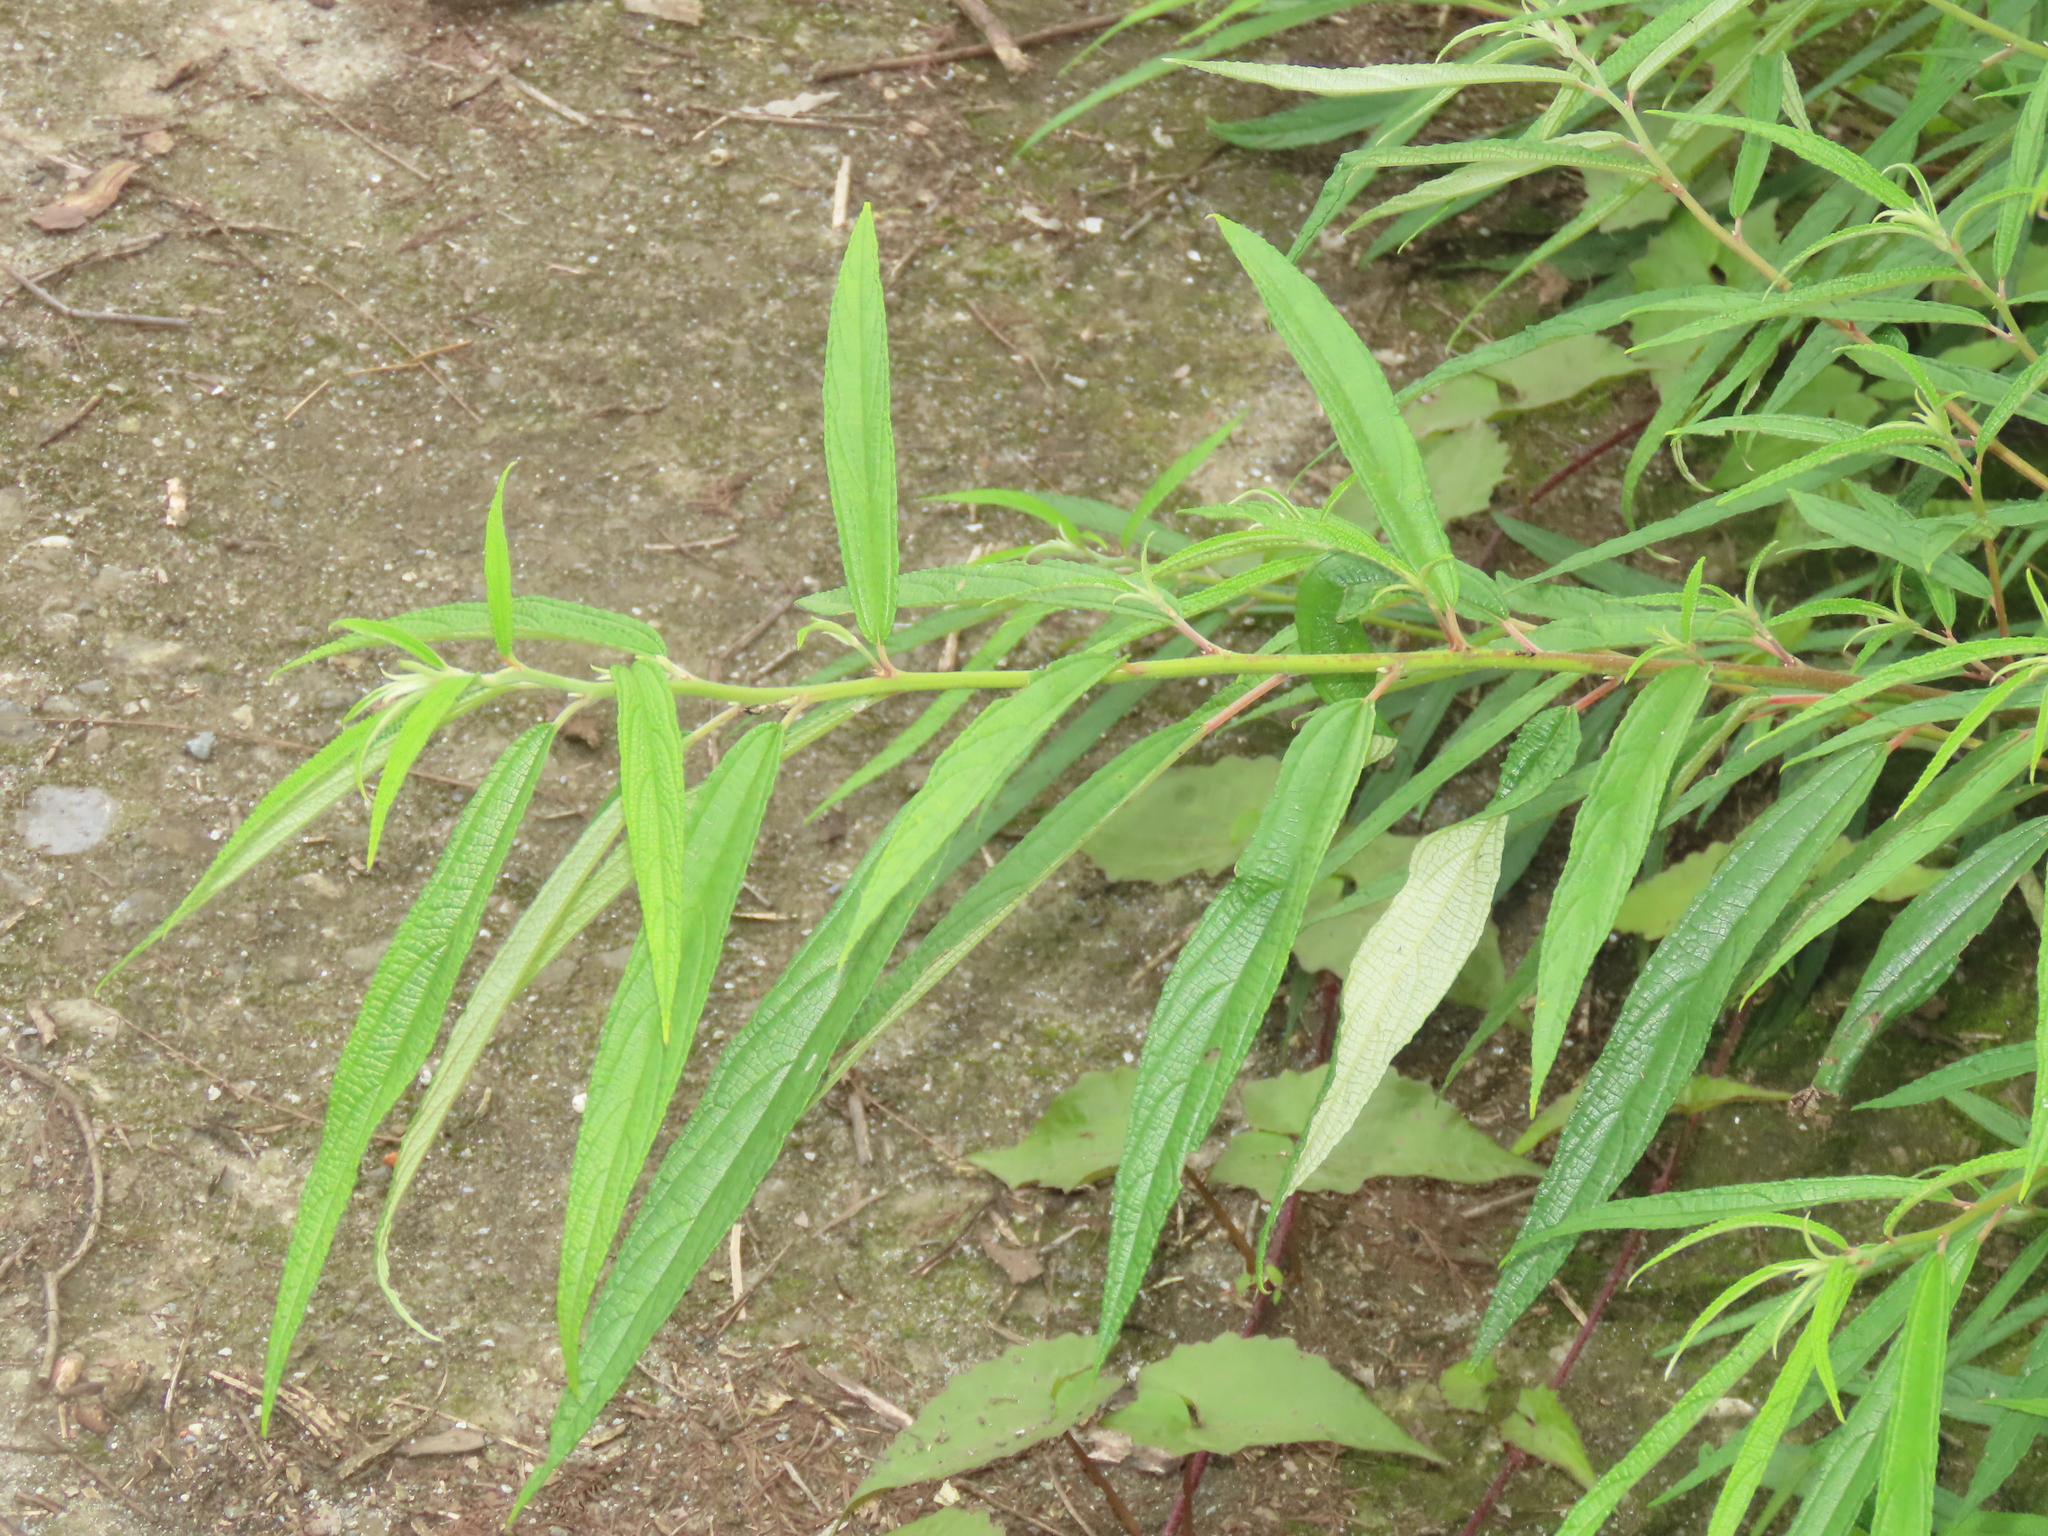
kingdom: Plantae
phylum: Tracheophyta
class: Magnoliopsida
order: Rosales
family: Urticaceae
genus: Debregeasia
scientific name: Debregeasia orientalis
